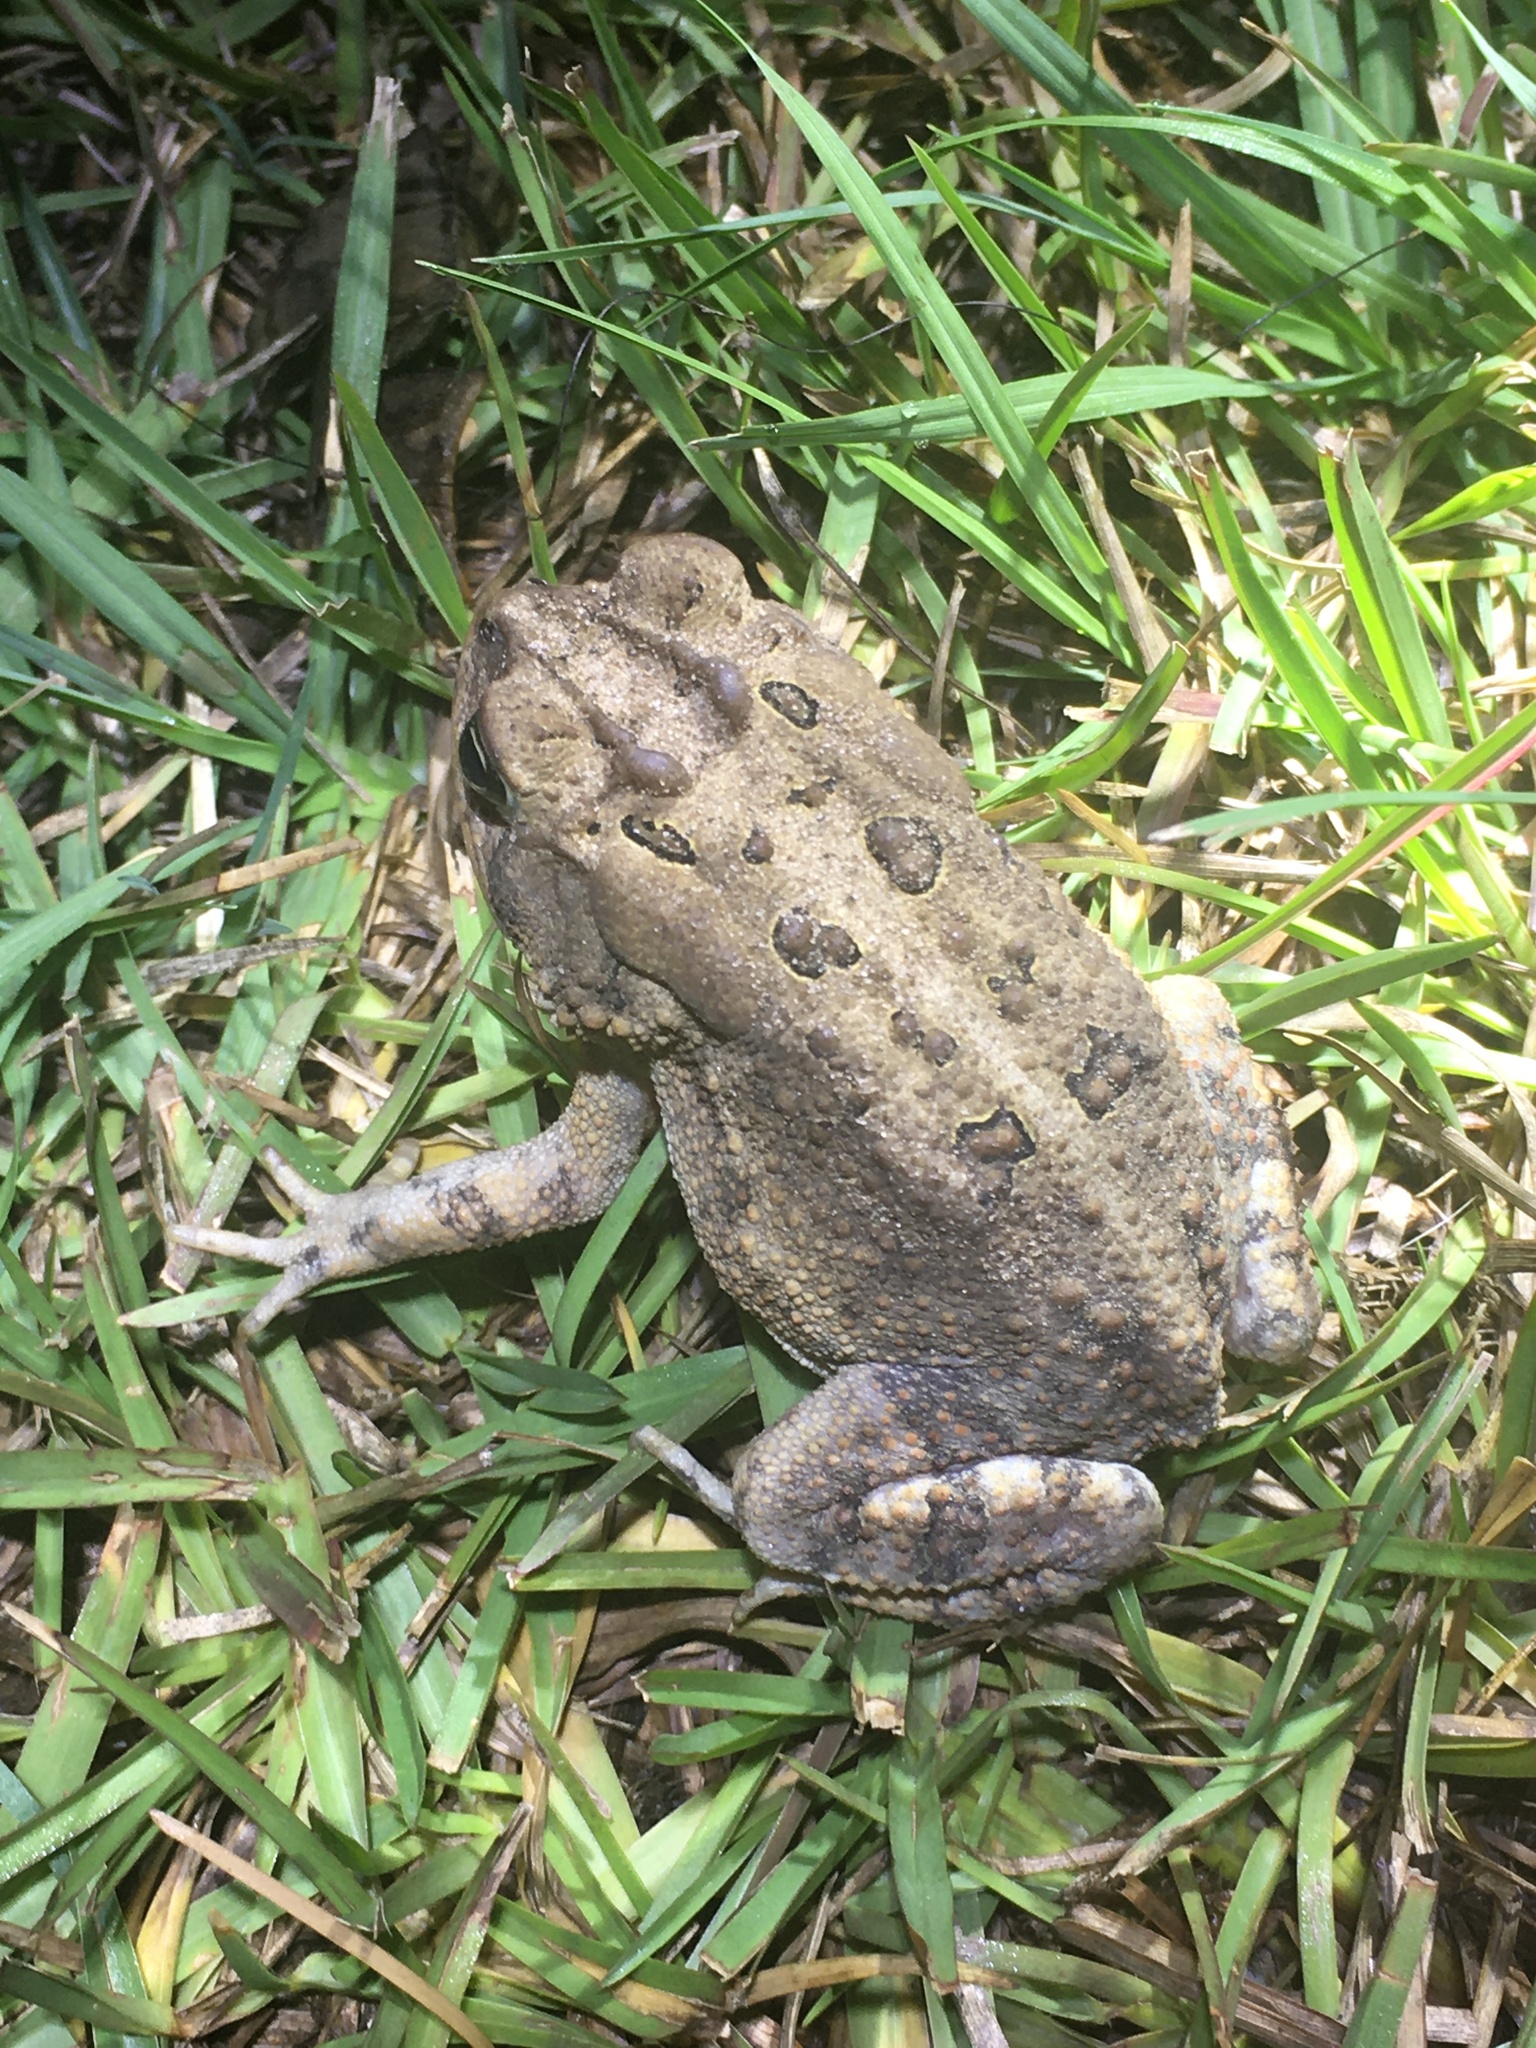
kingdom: Animalia
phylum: Chordata
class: Amphibia
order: Anura
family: Bufonidae
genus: Anaxyrus
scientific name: Anaxyrus terrestris
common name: Southern toad
